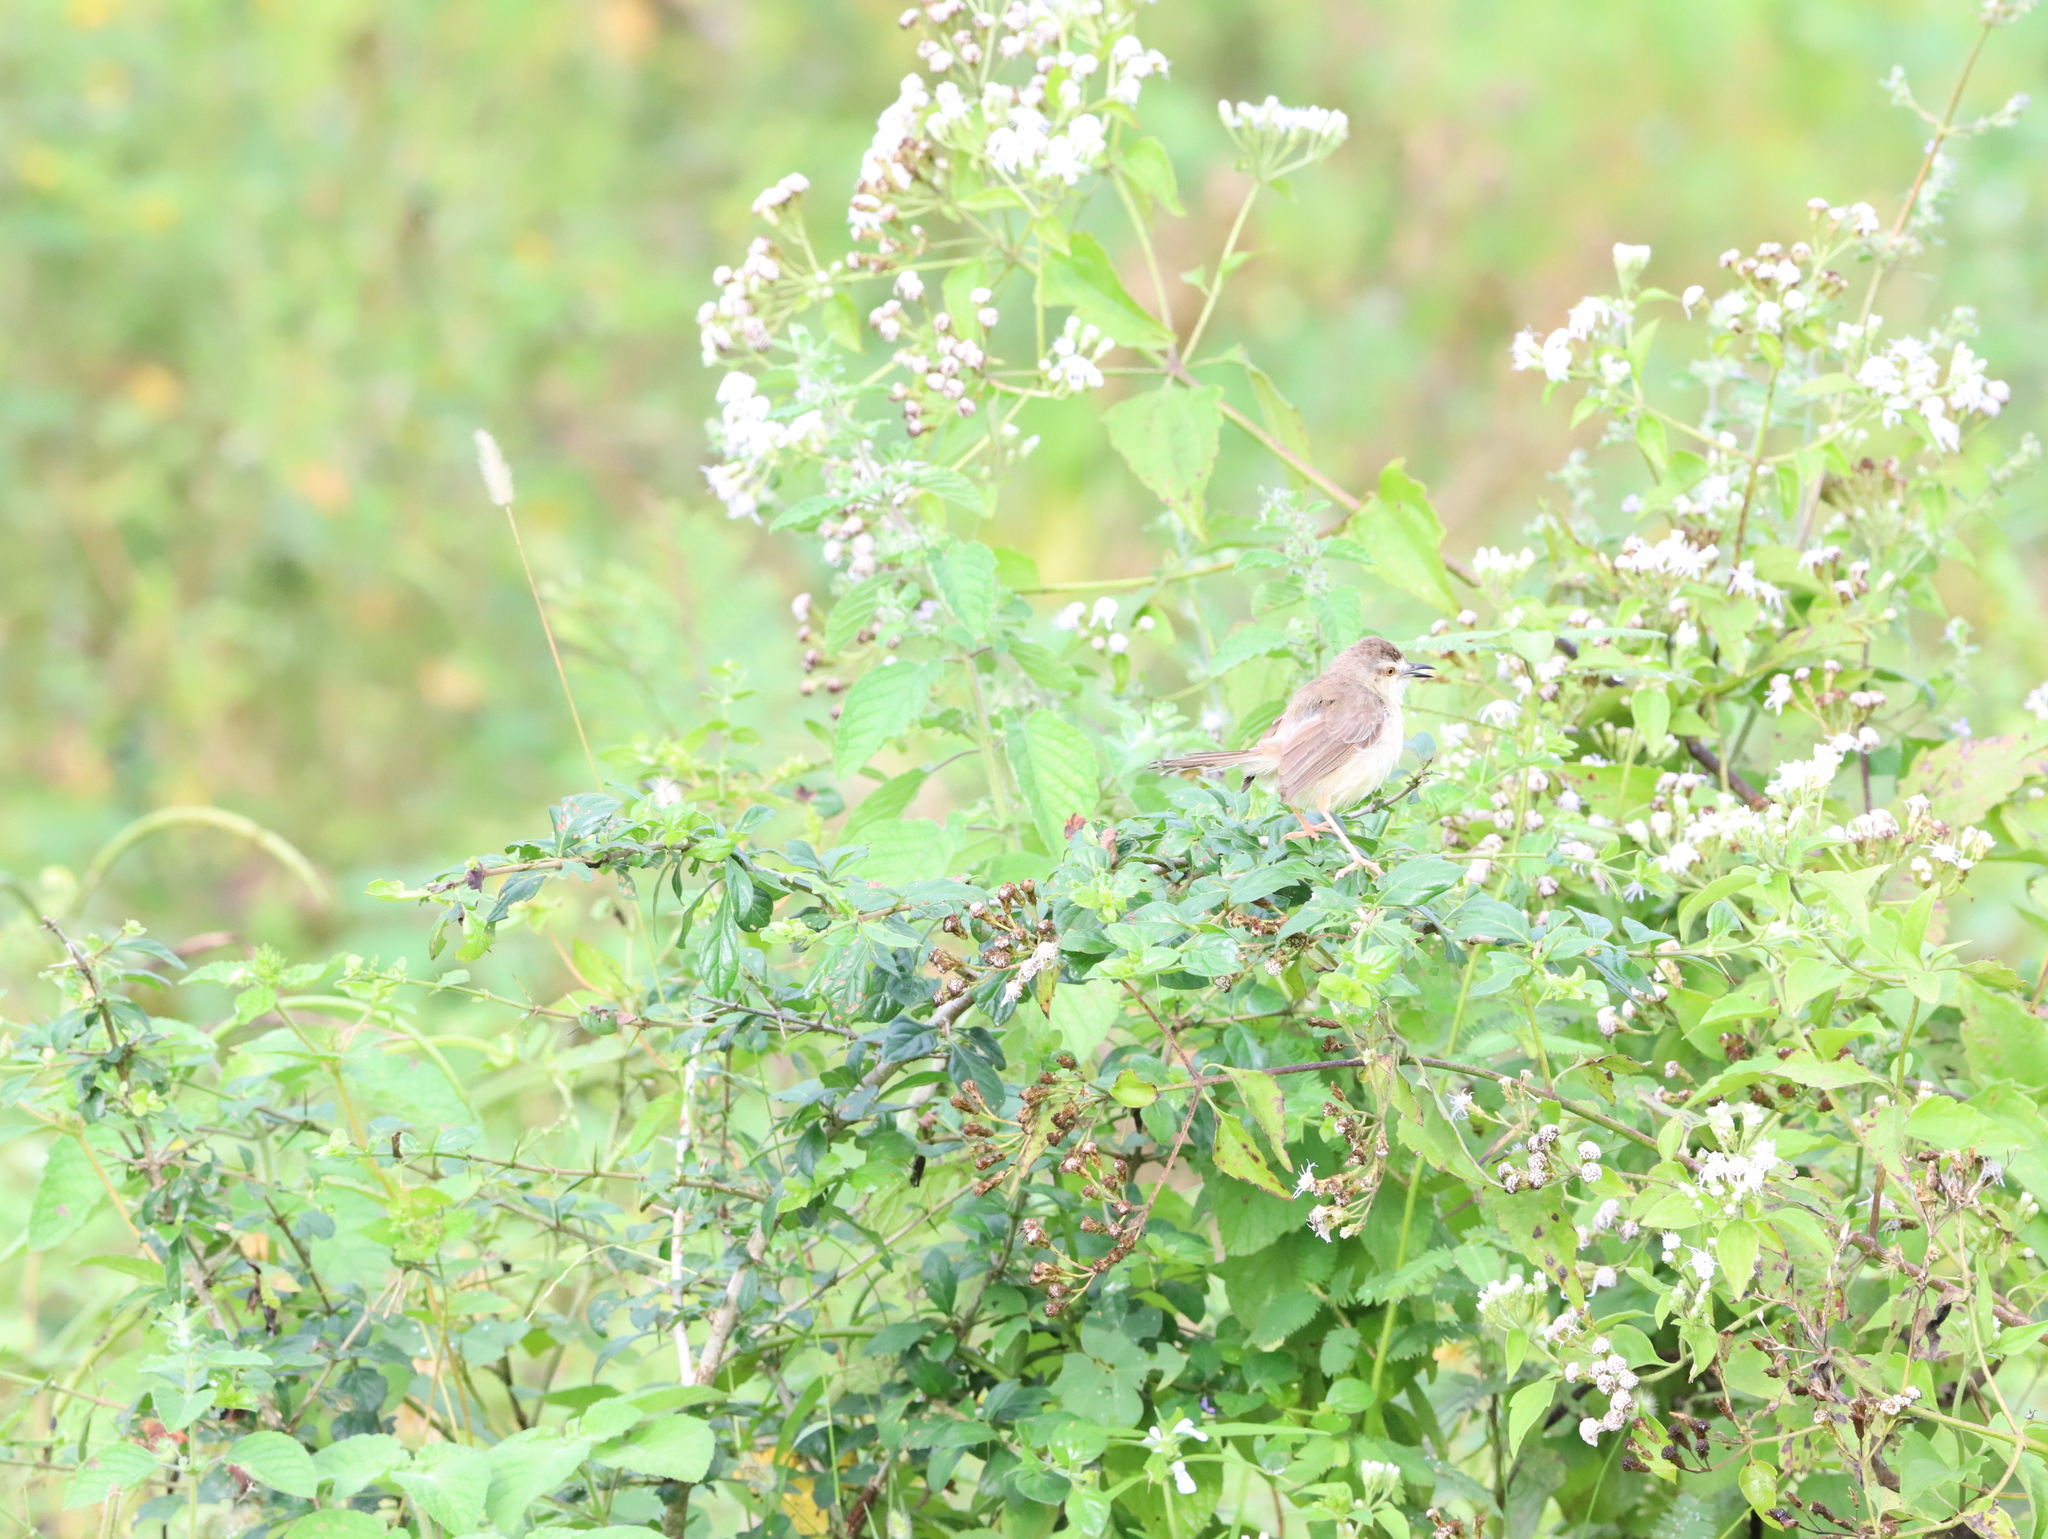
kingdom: Animalia
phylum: Chordata
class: Aves
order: Passeriformes
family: Cisticolidae
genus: Prinia
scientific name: Prinia inornata
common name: Plain prinia
